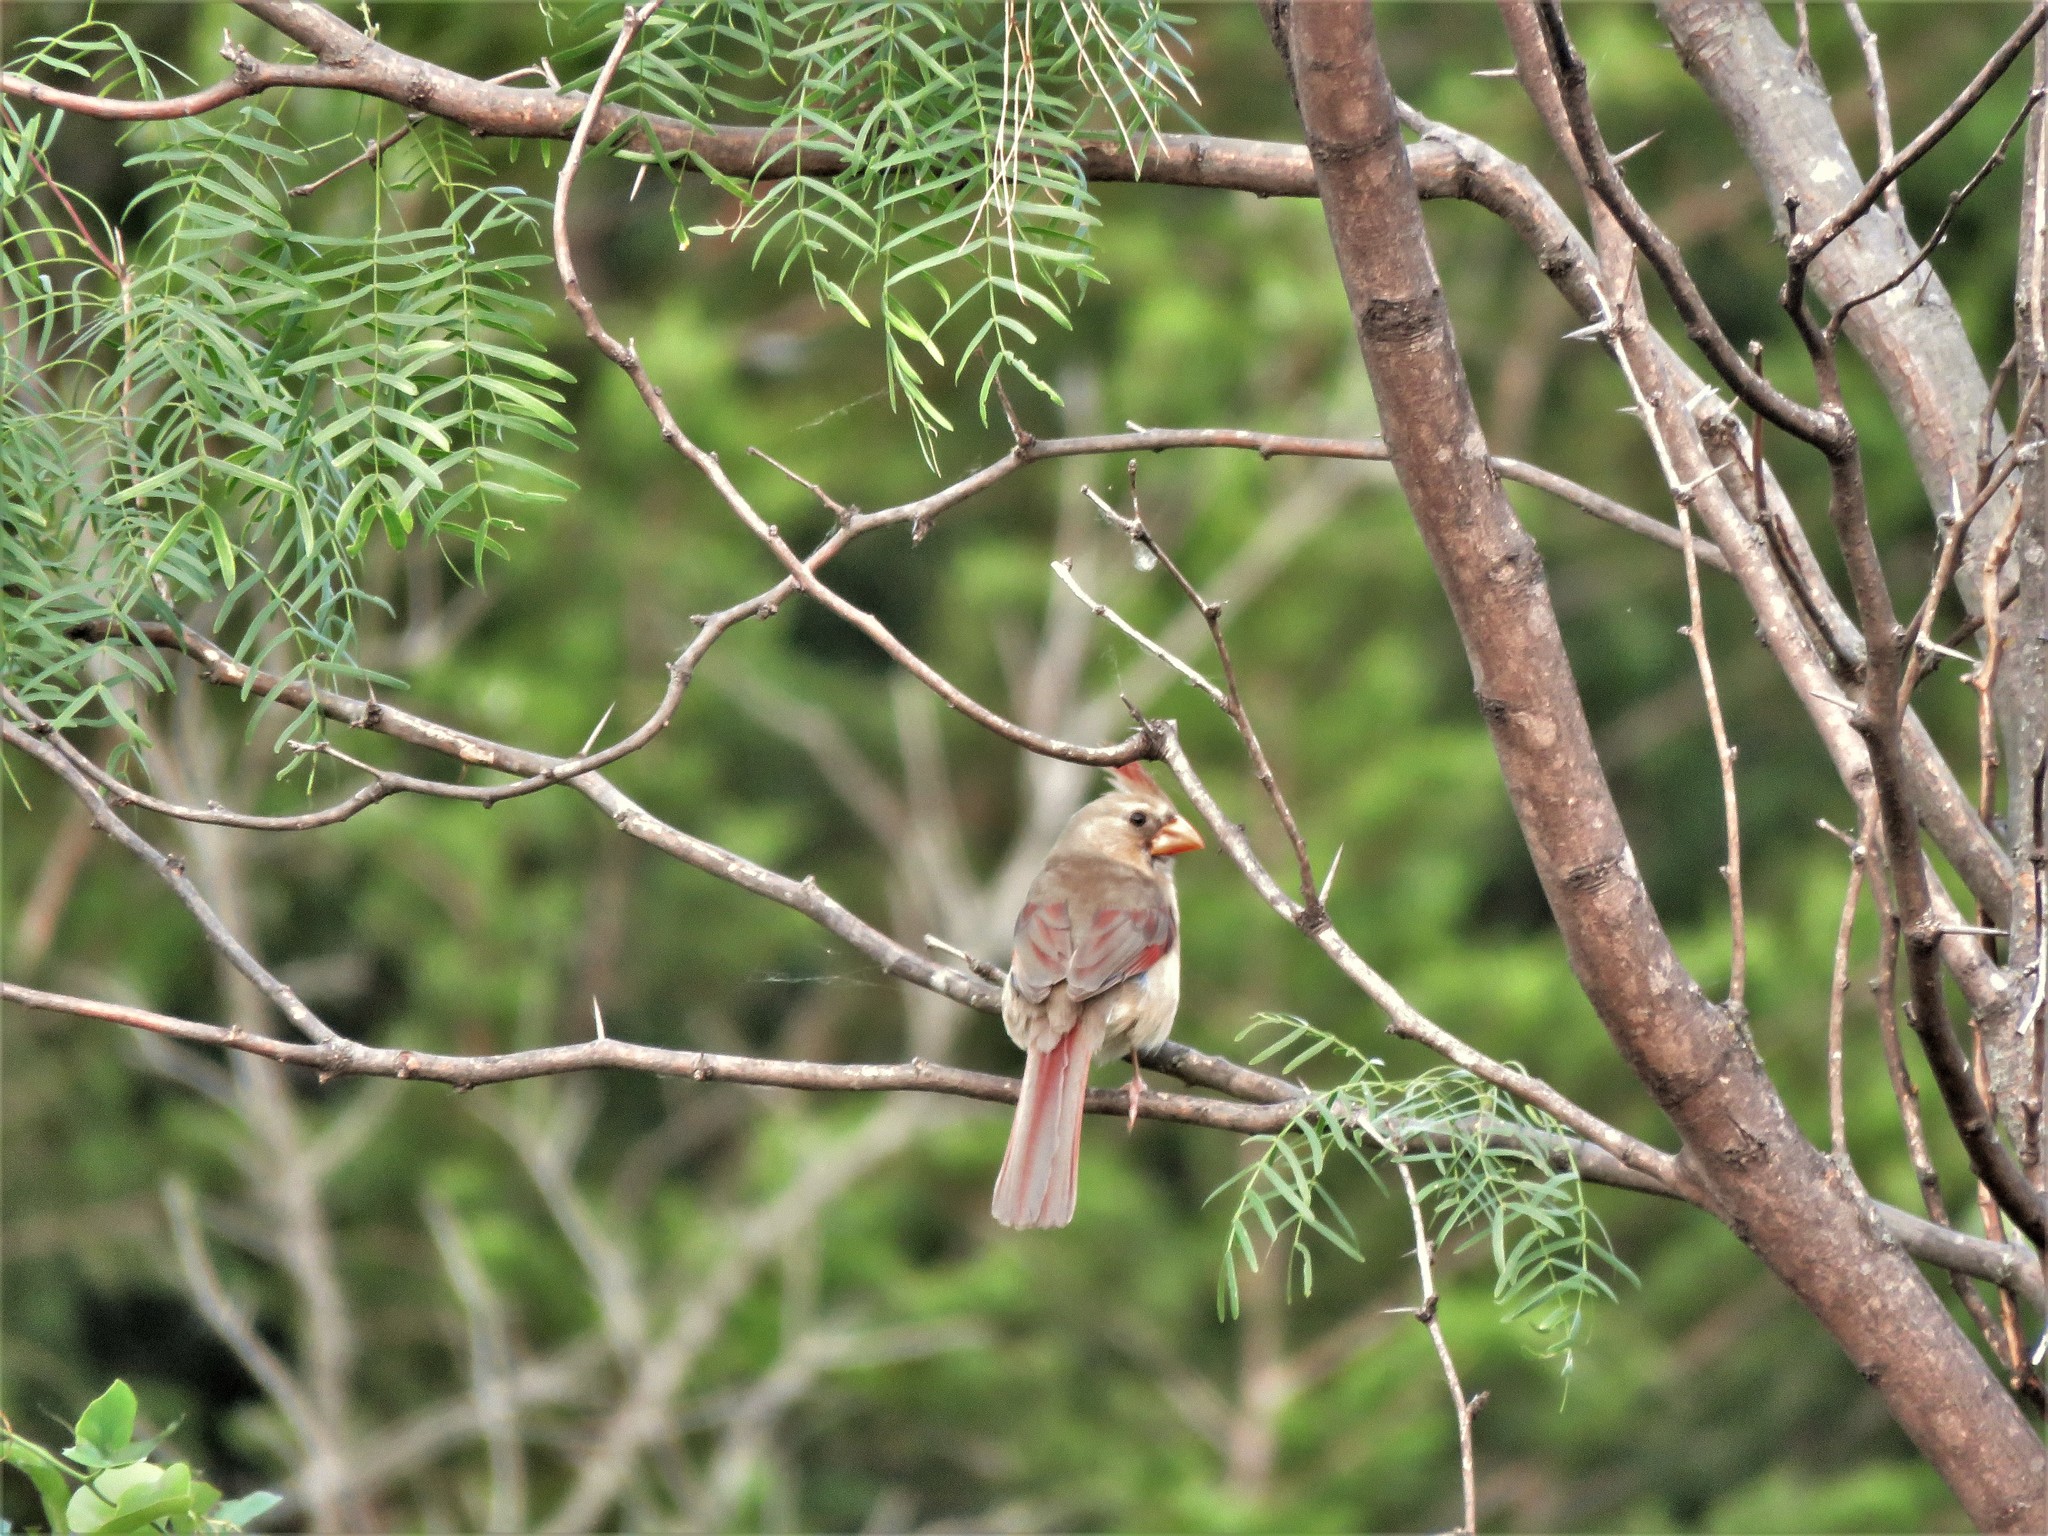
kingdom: Animalia
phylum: Chordata
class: Aves
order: Passeriformes
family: Cardinalidae
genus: Cardinalis
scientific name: Cardinalis cardinalis
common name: Northern cardinal
